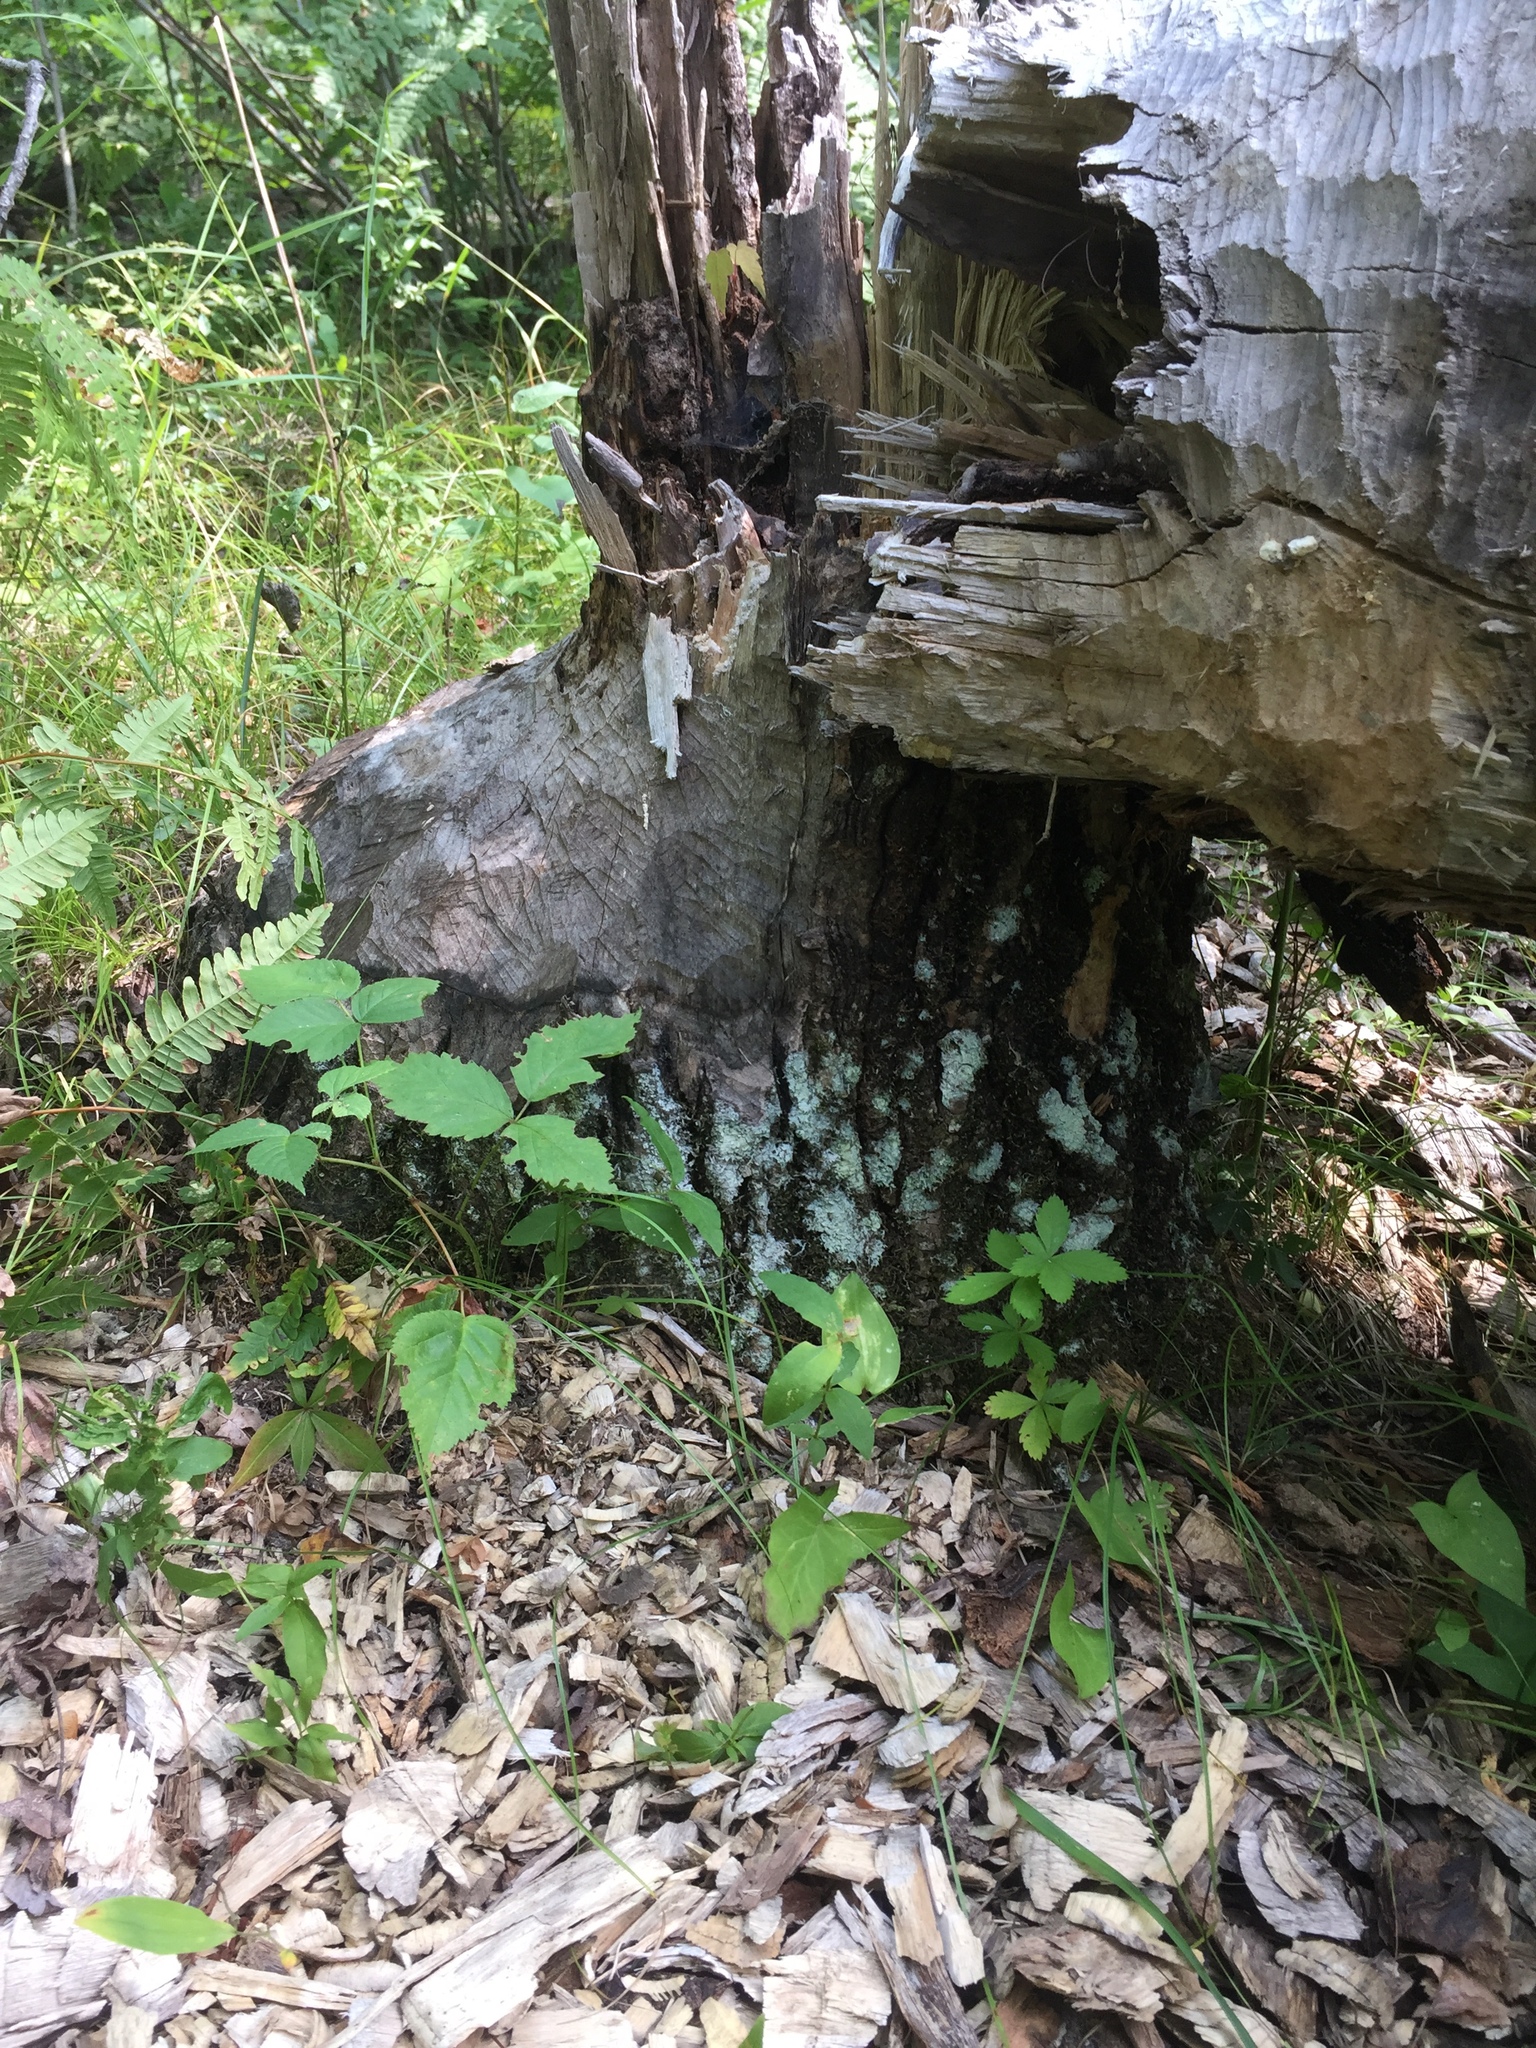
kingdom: Animalia
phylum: Chordata
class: Mammalia
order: Rodentia
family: Castoridae
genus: Castor
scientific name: Castor canadensis
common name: American beaver
